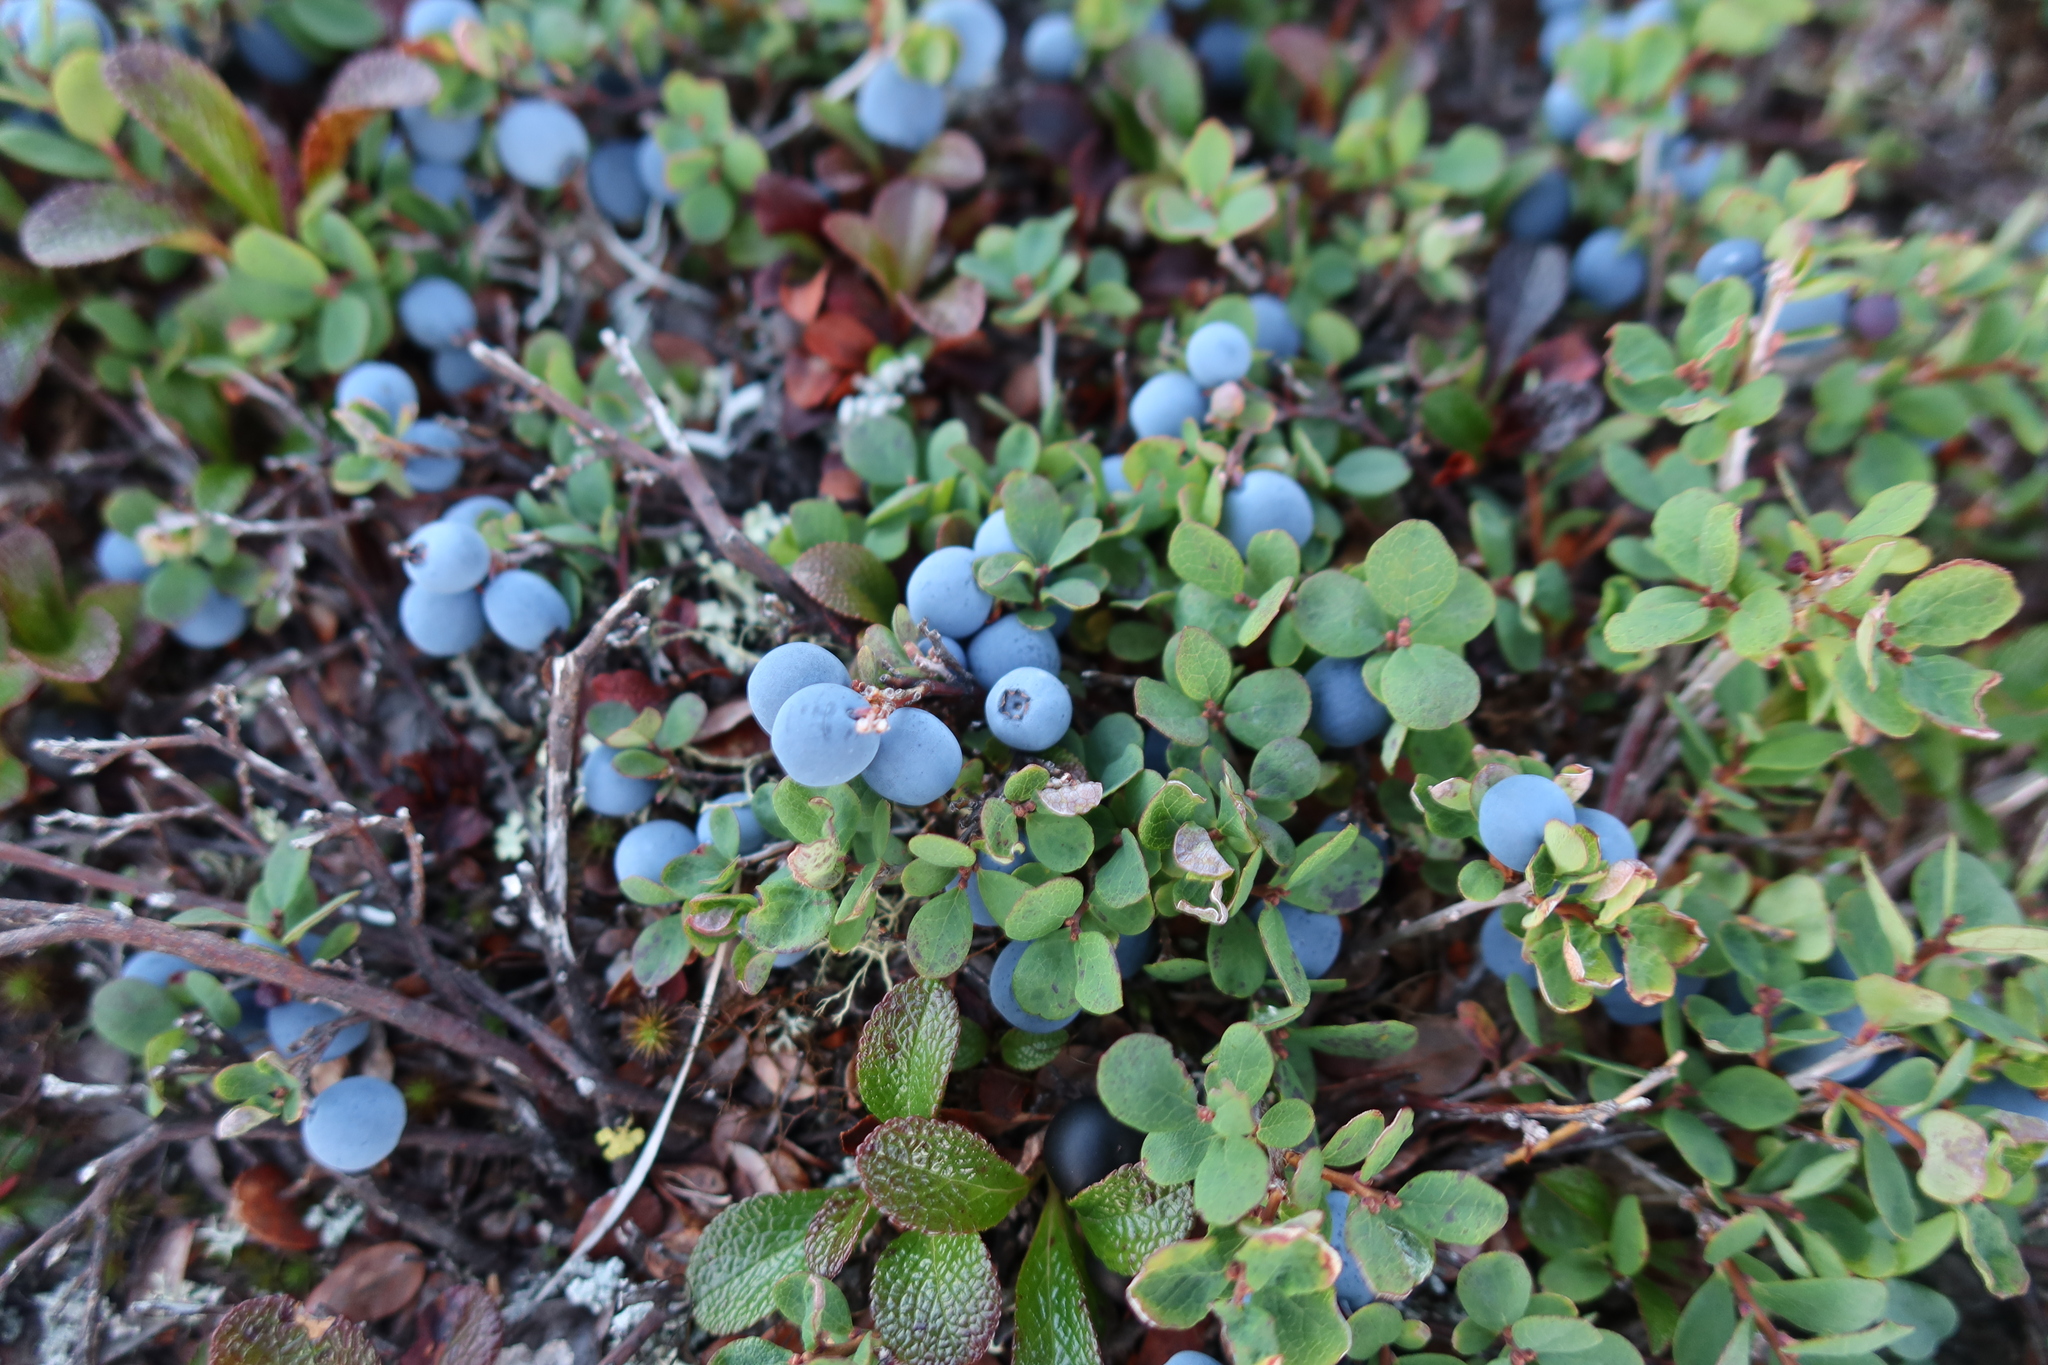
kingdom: Plantae
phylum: Tracheophyta
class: Magnoliopsida
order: Ericales
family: Ericaceae
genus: Vaccinium
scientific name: Vaccinium uliginosum
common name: Bog bilberry
